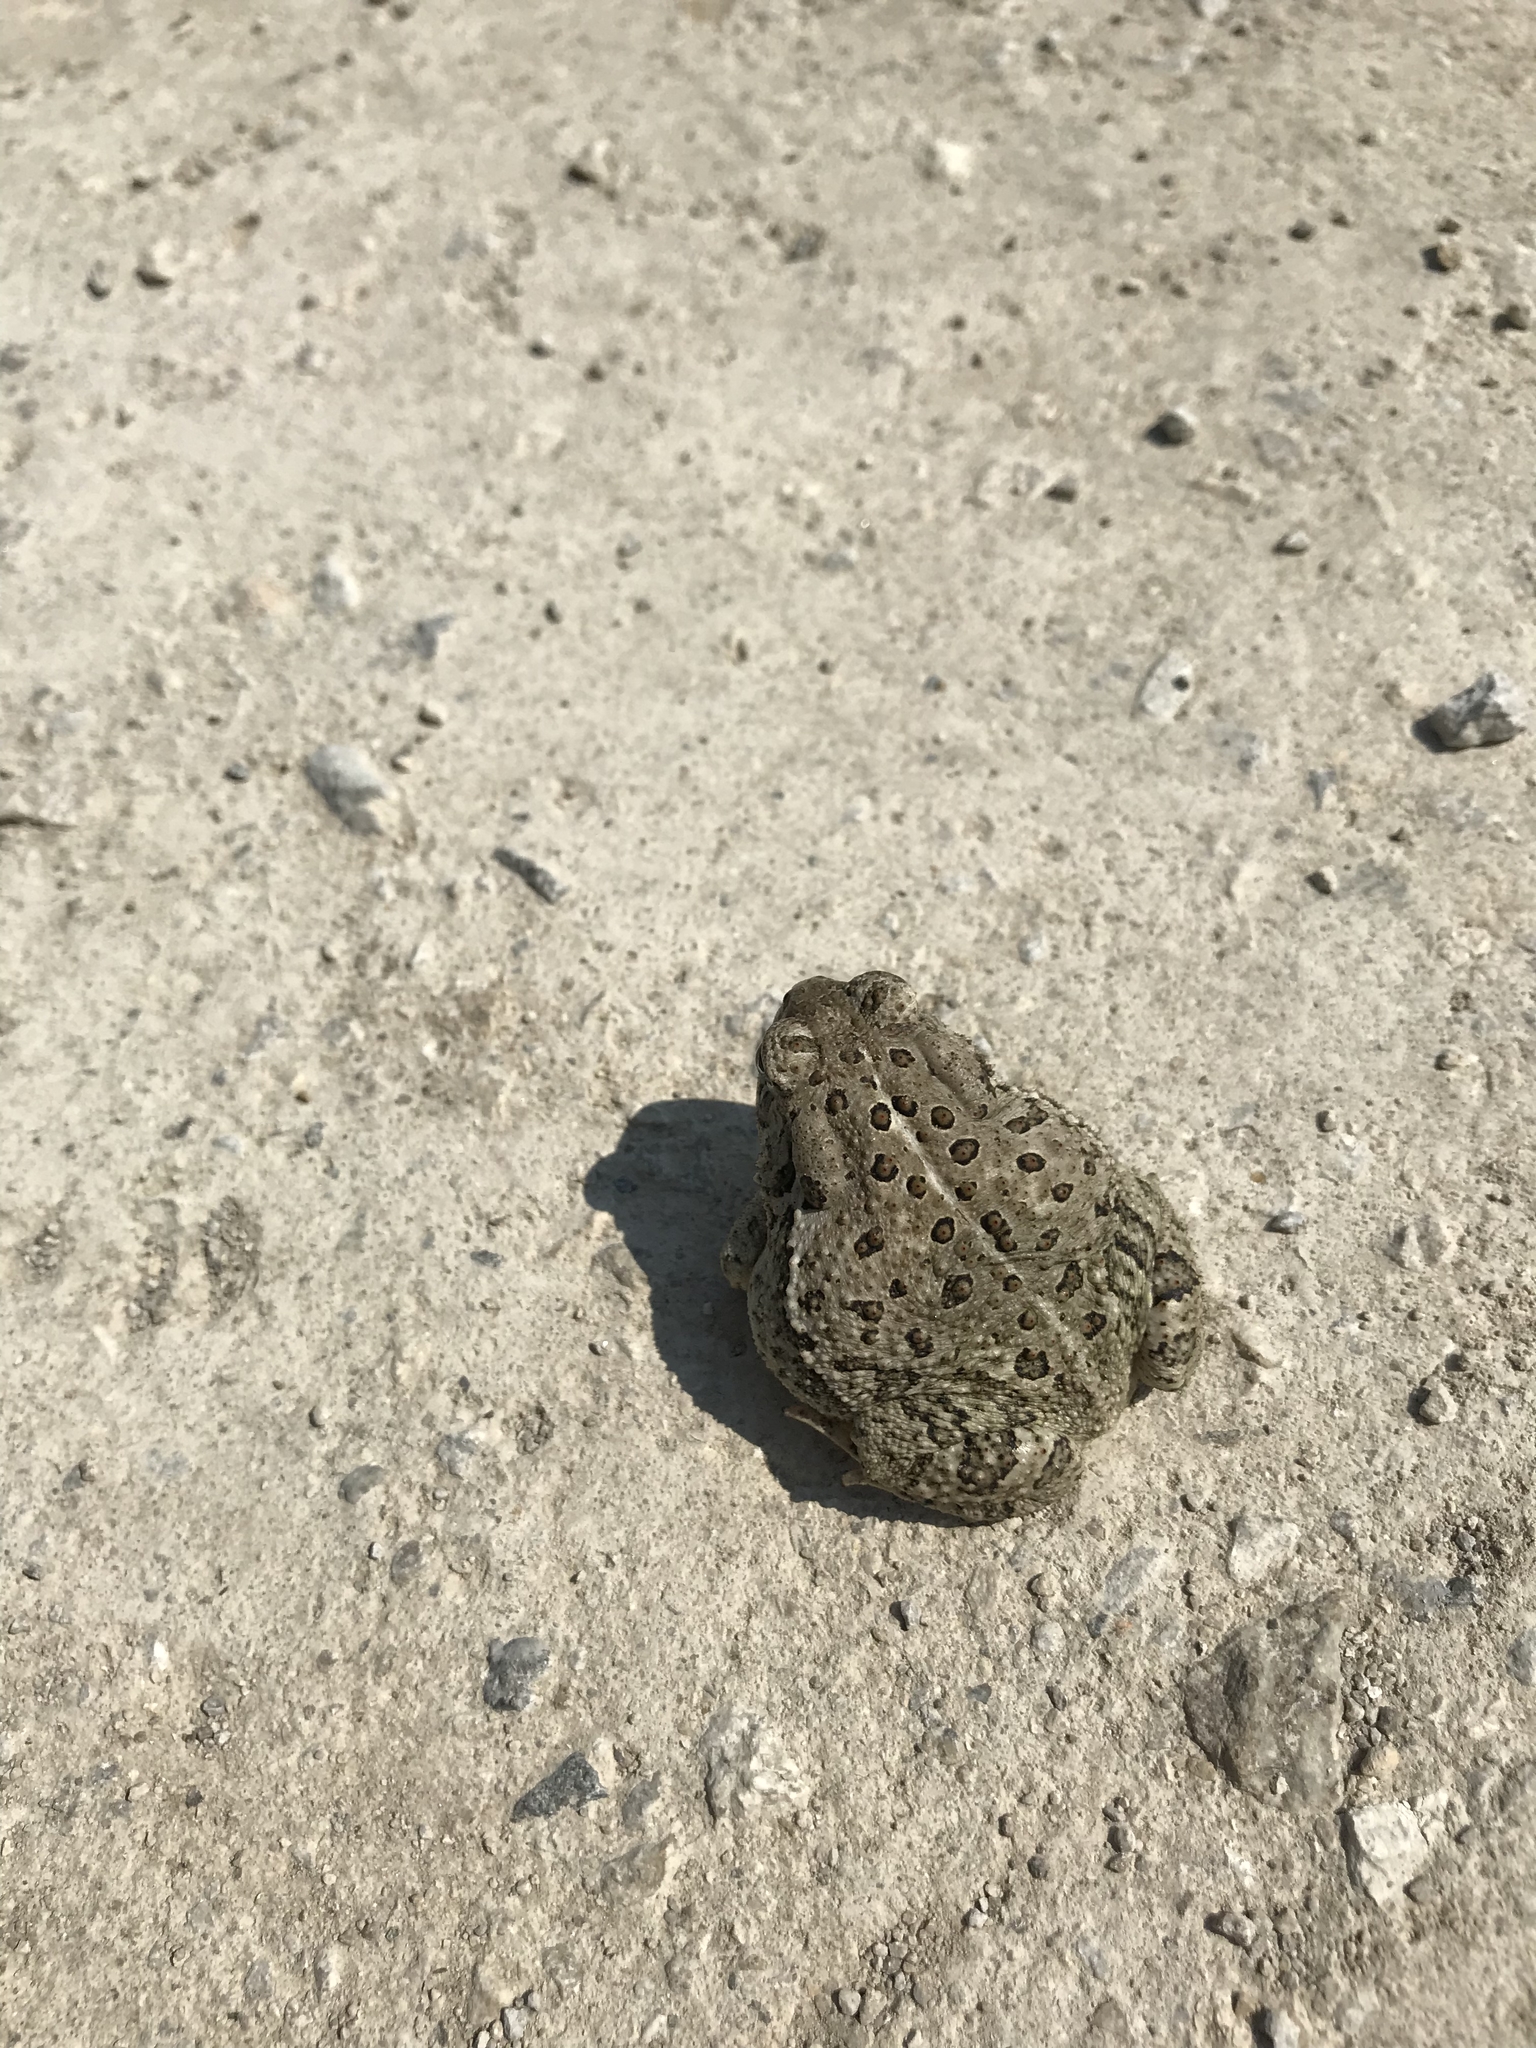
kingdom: Animalia
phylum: Chordata
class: Amphibia
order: Anura
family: Bufonidae
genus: Anaxyrus
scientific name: Anaxyrus americanus
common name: American toad
